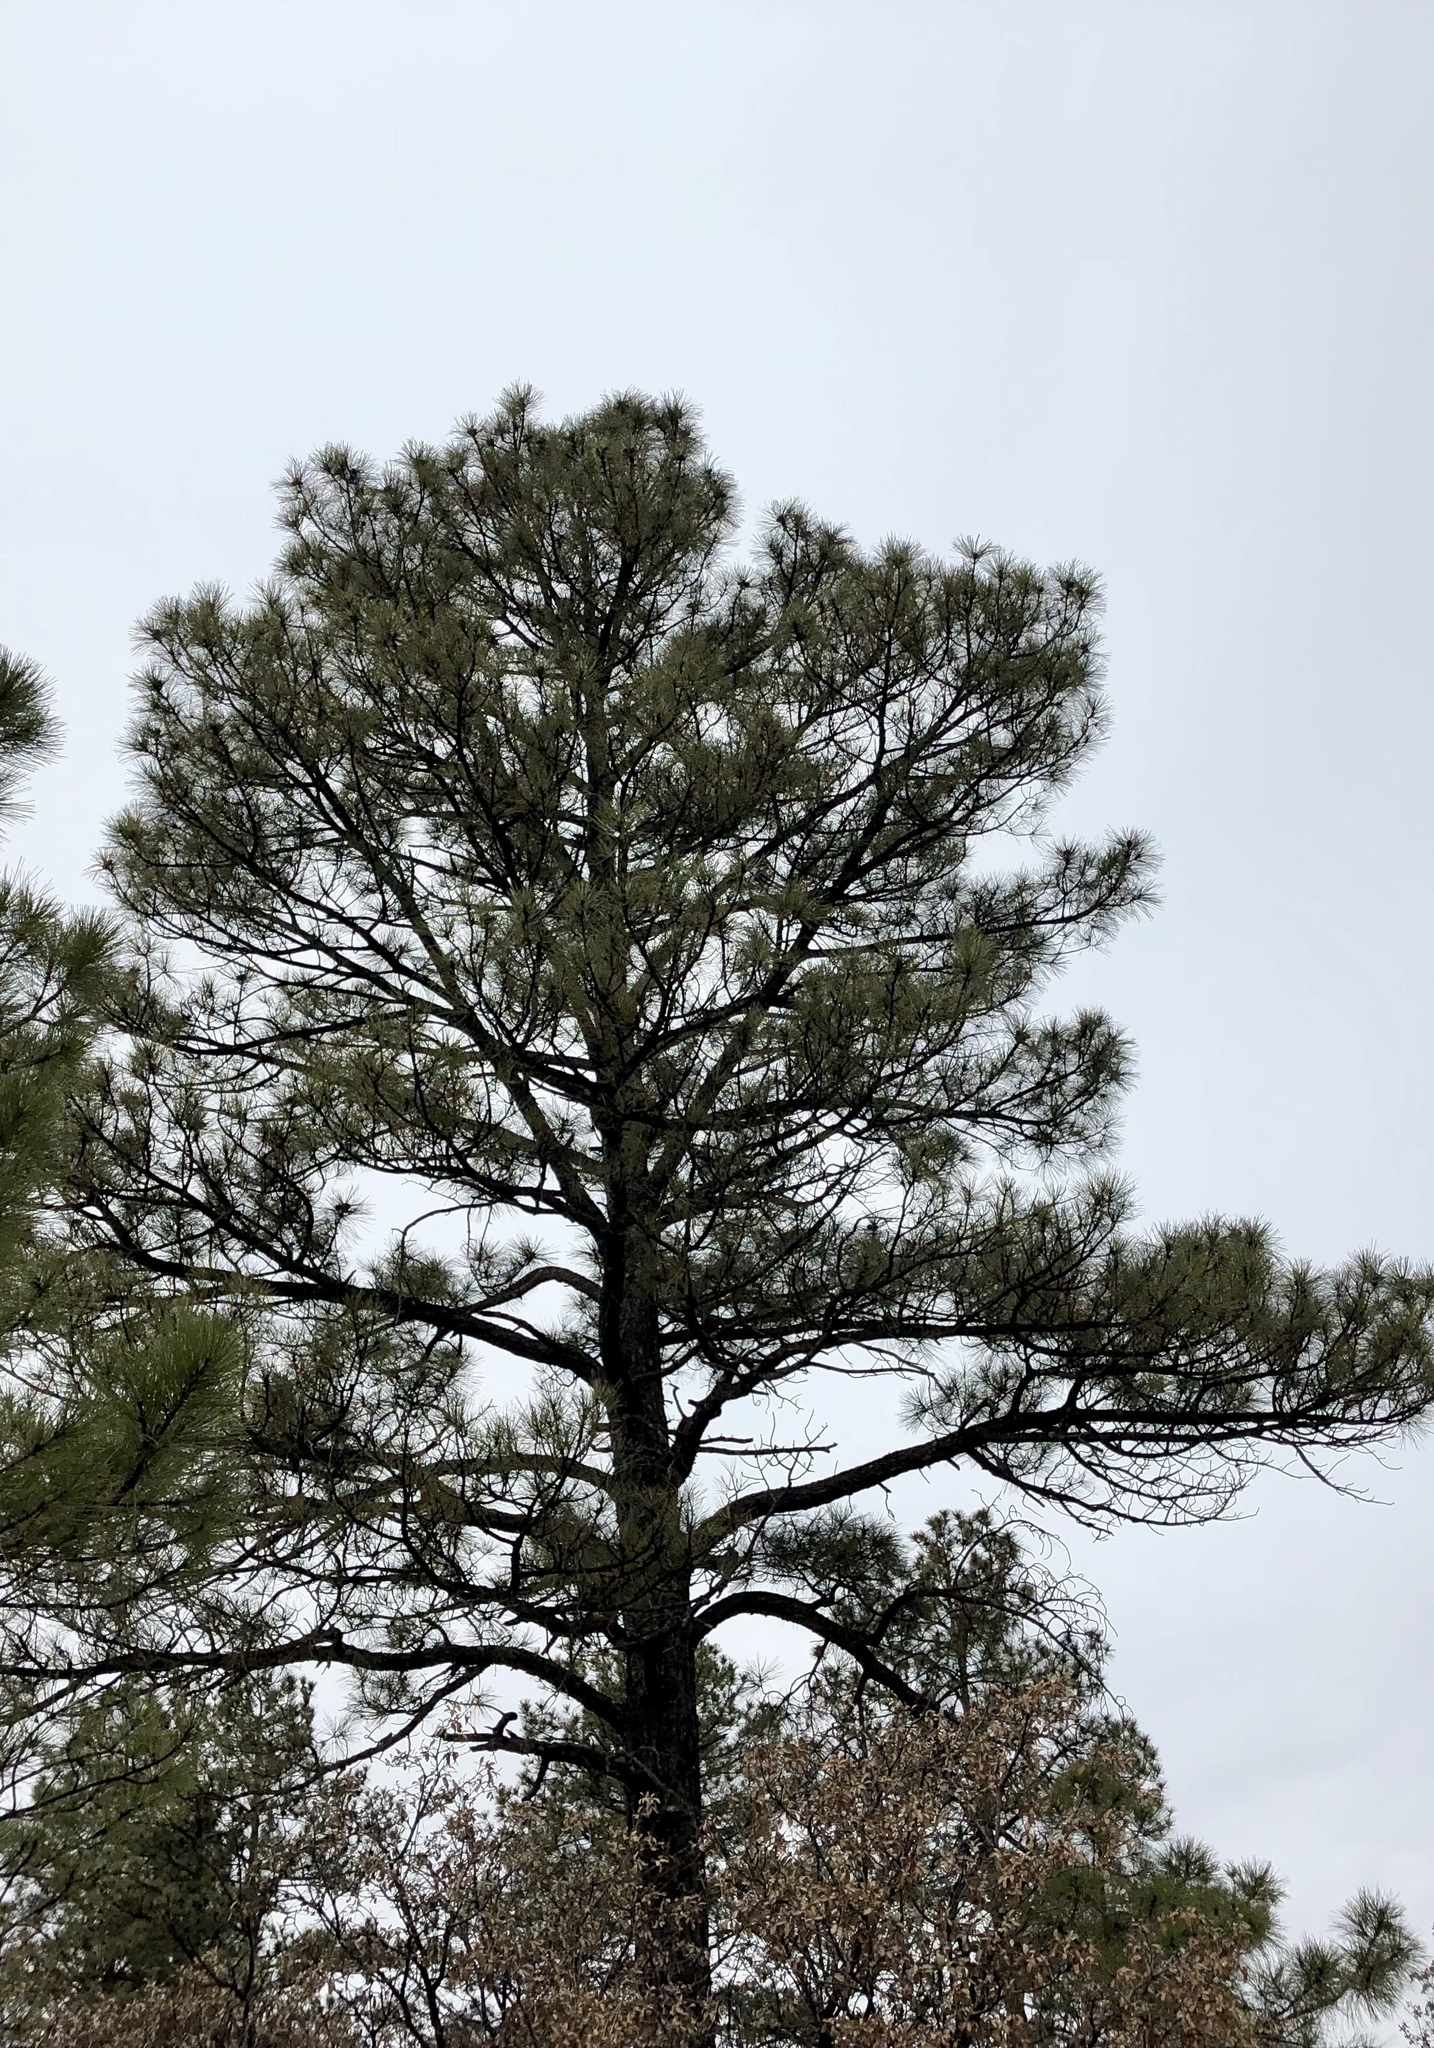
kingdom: Plantae
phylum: Tracheophyta
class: Pinopsida
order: Pinales
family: Pinaceae
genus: Pinus
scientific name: Pinus ponderosa
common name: Western yellow-pine
